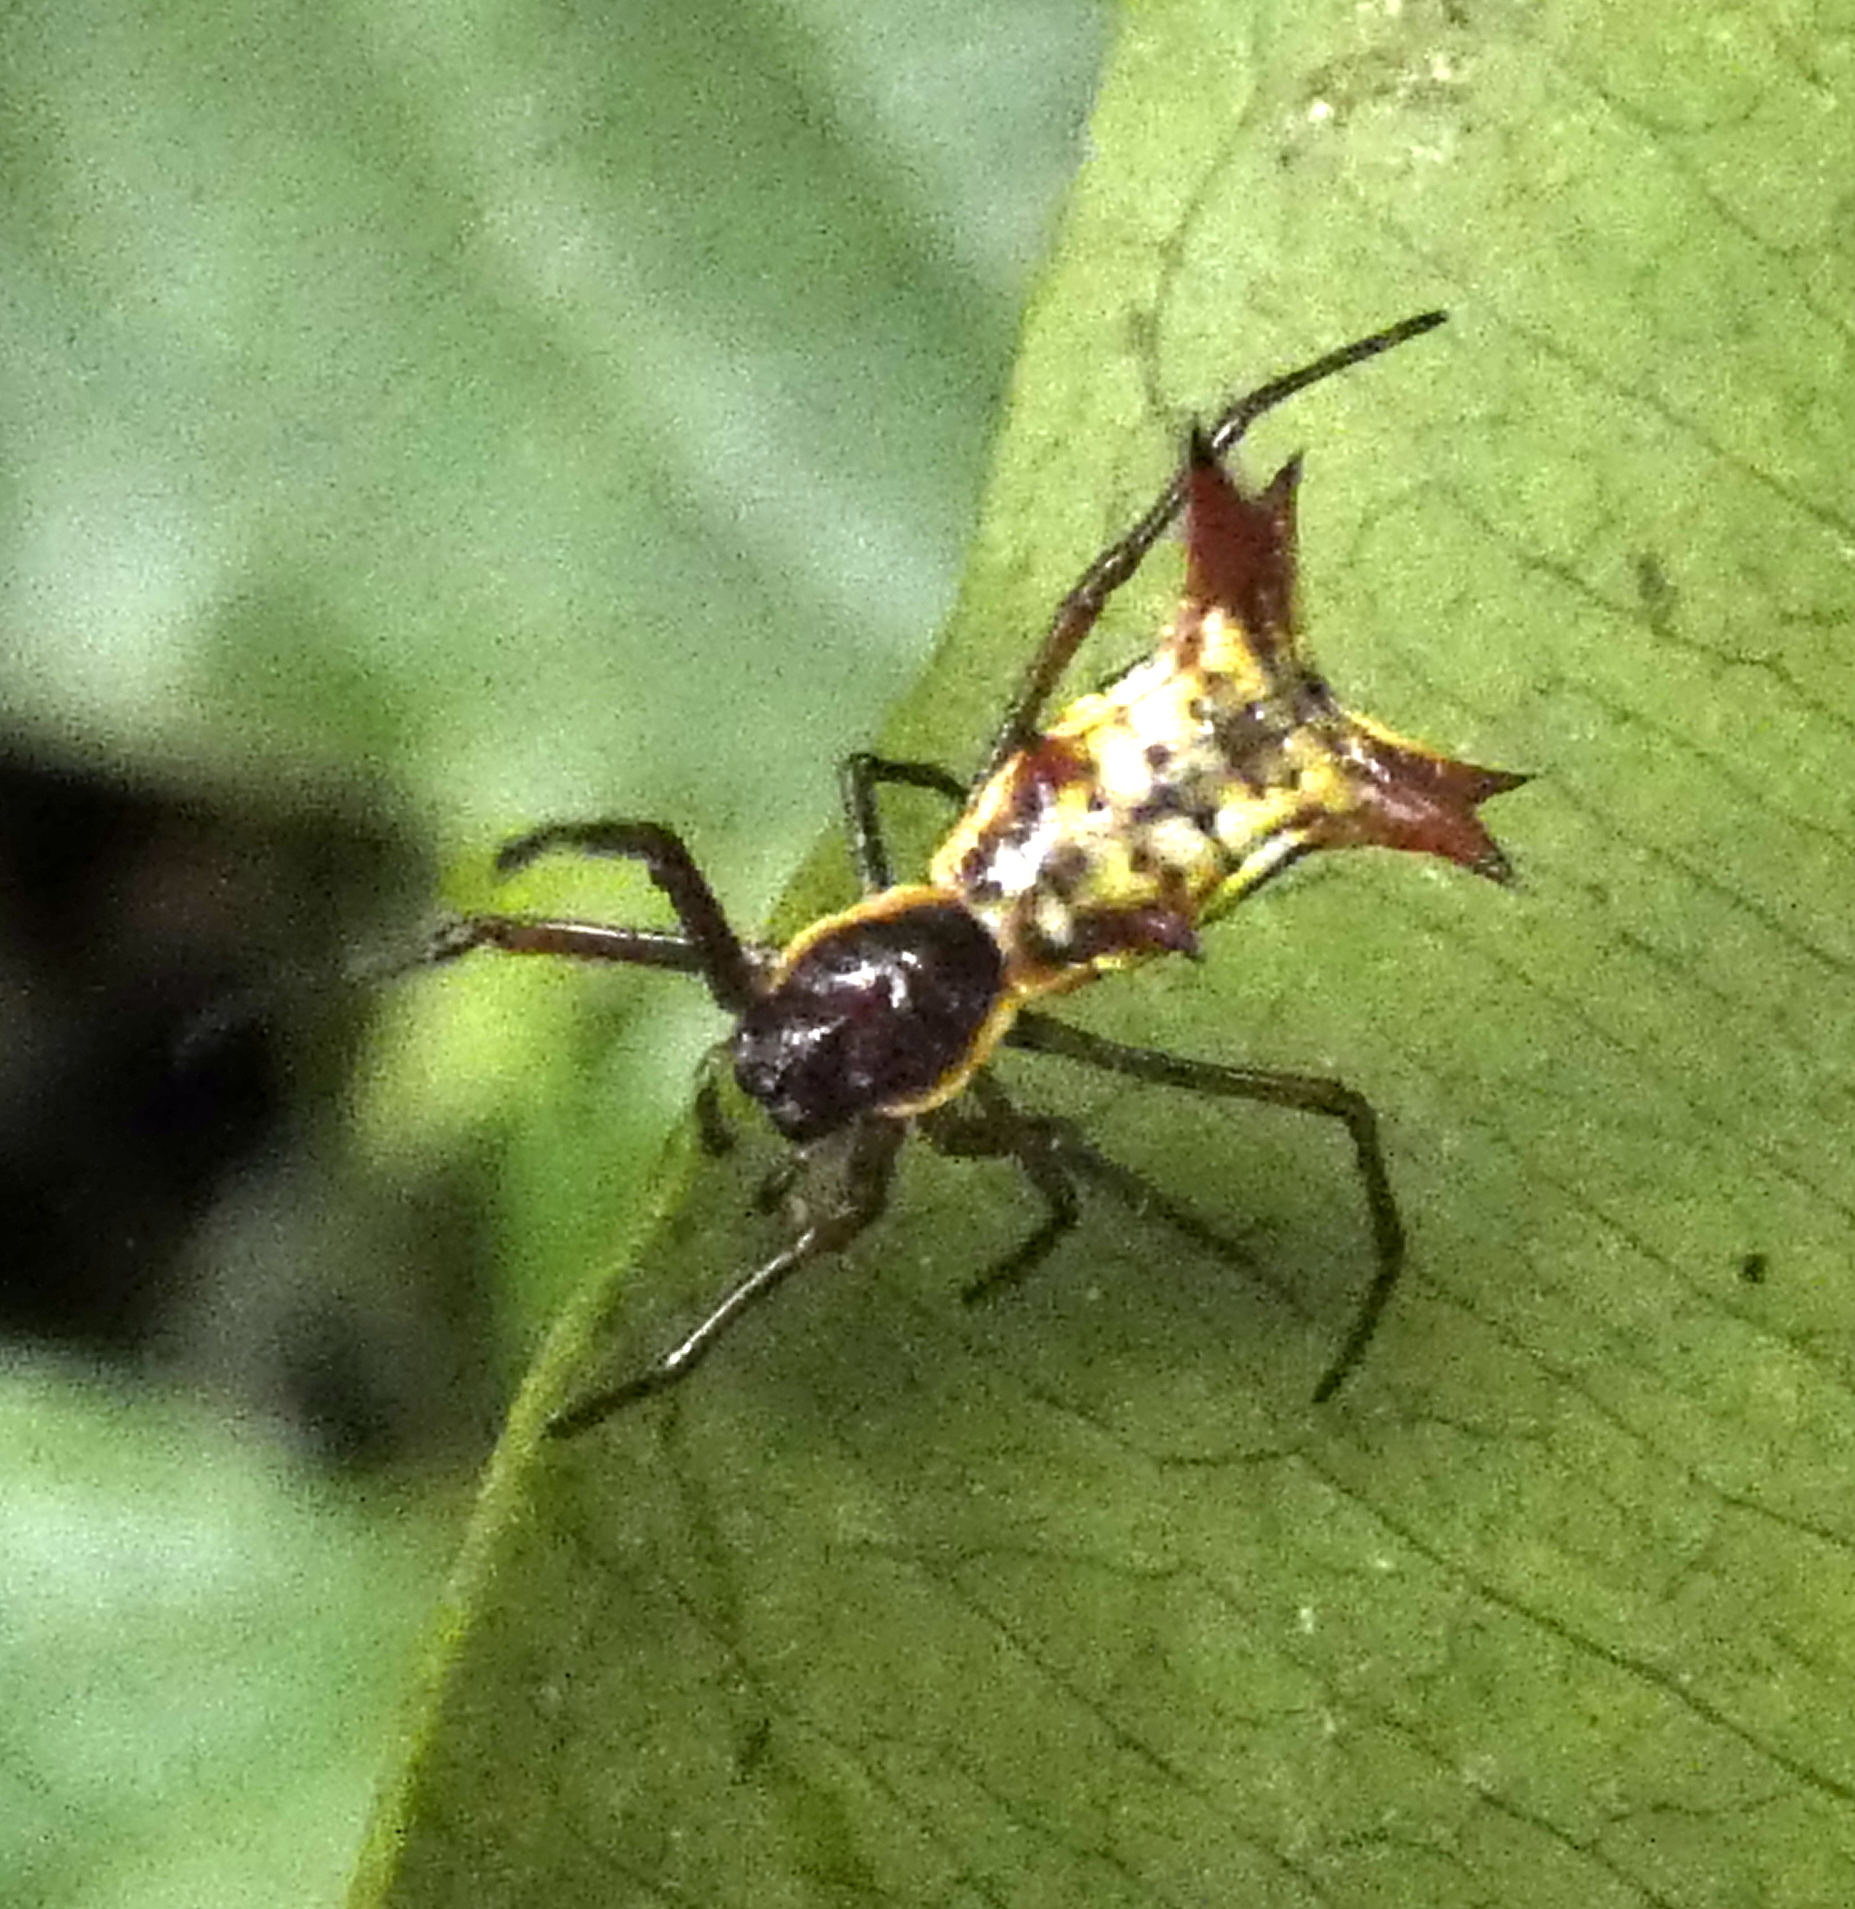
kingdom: Animalia
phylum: Arthropoda
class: Arachnida
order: Araneae
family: Araneidae
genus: Micrathena
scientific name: Micrathena fissispina
